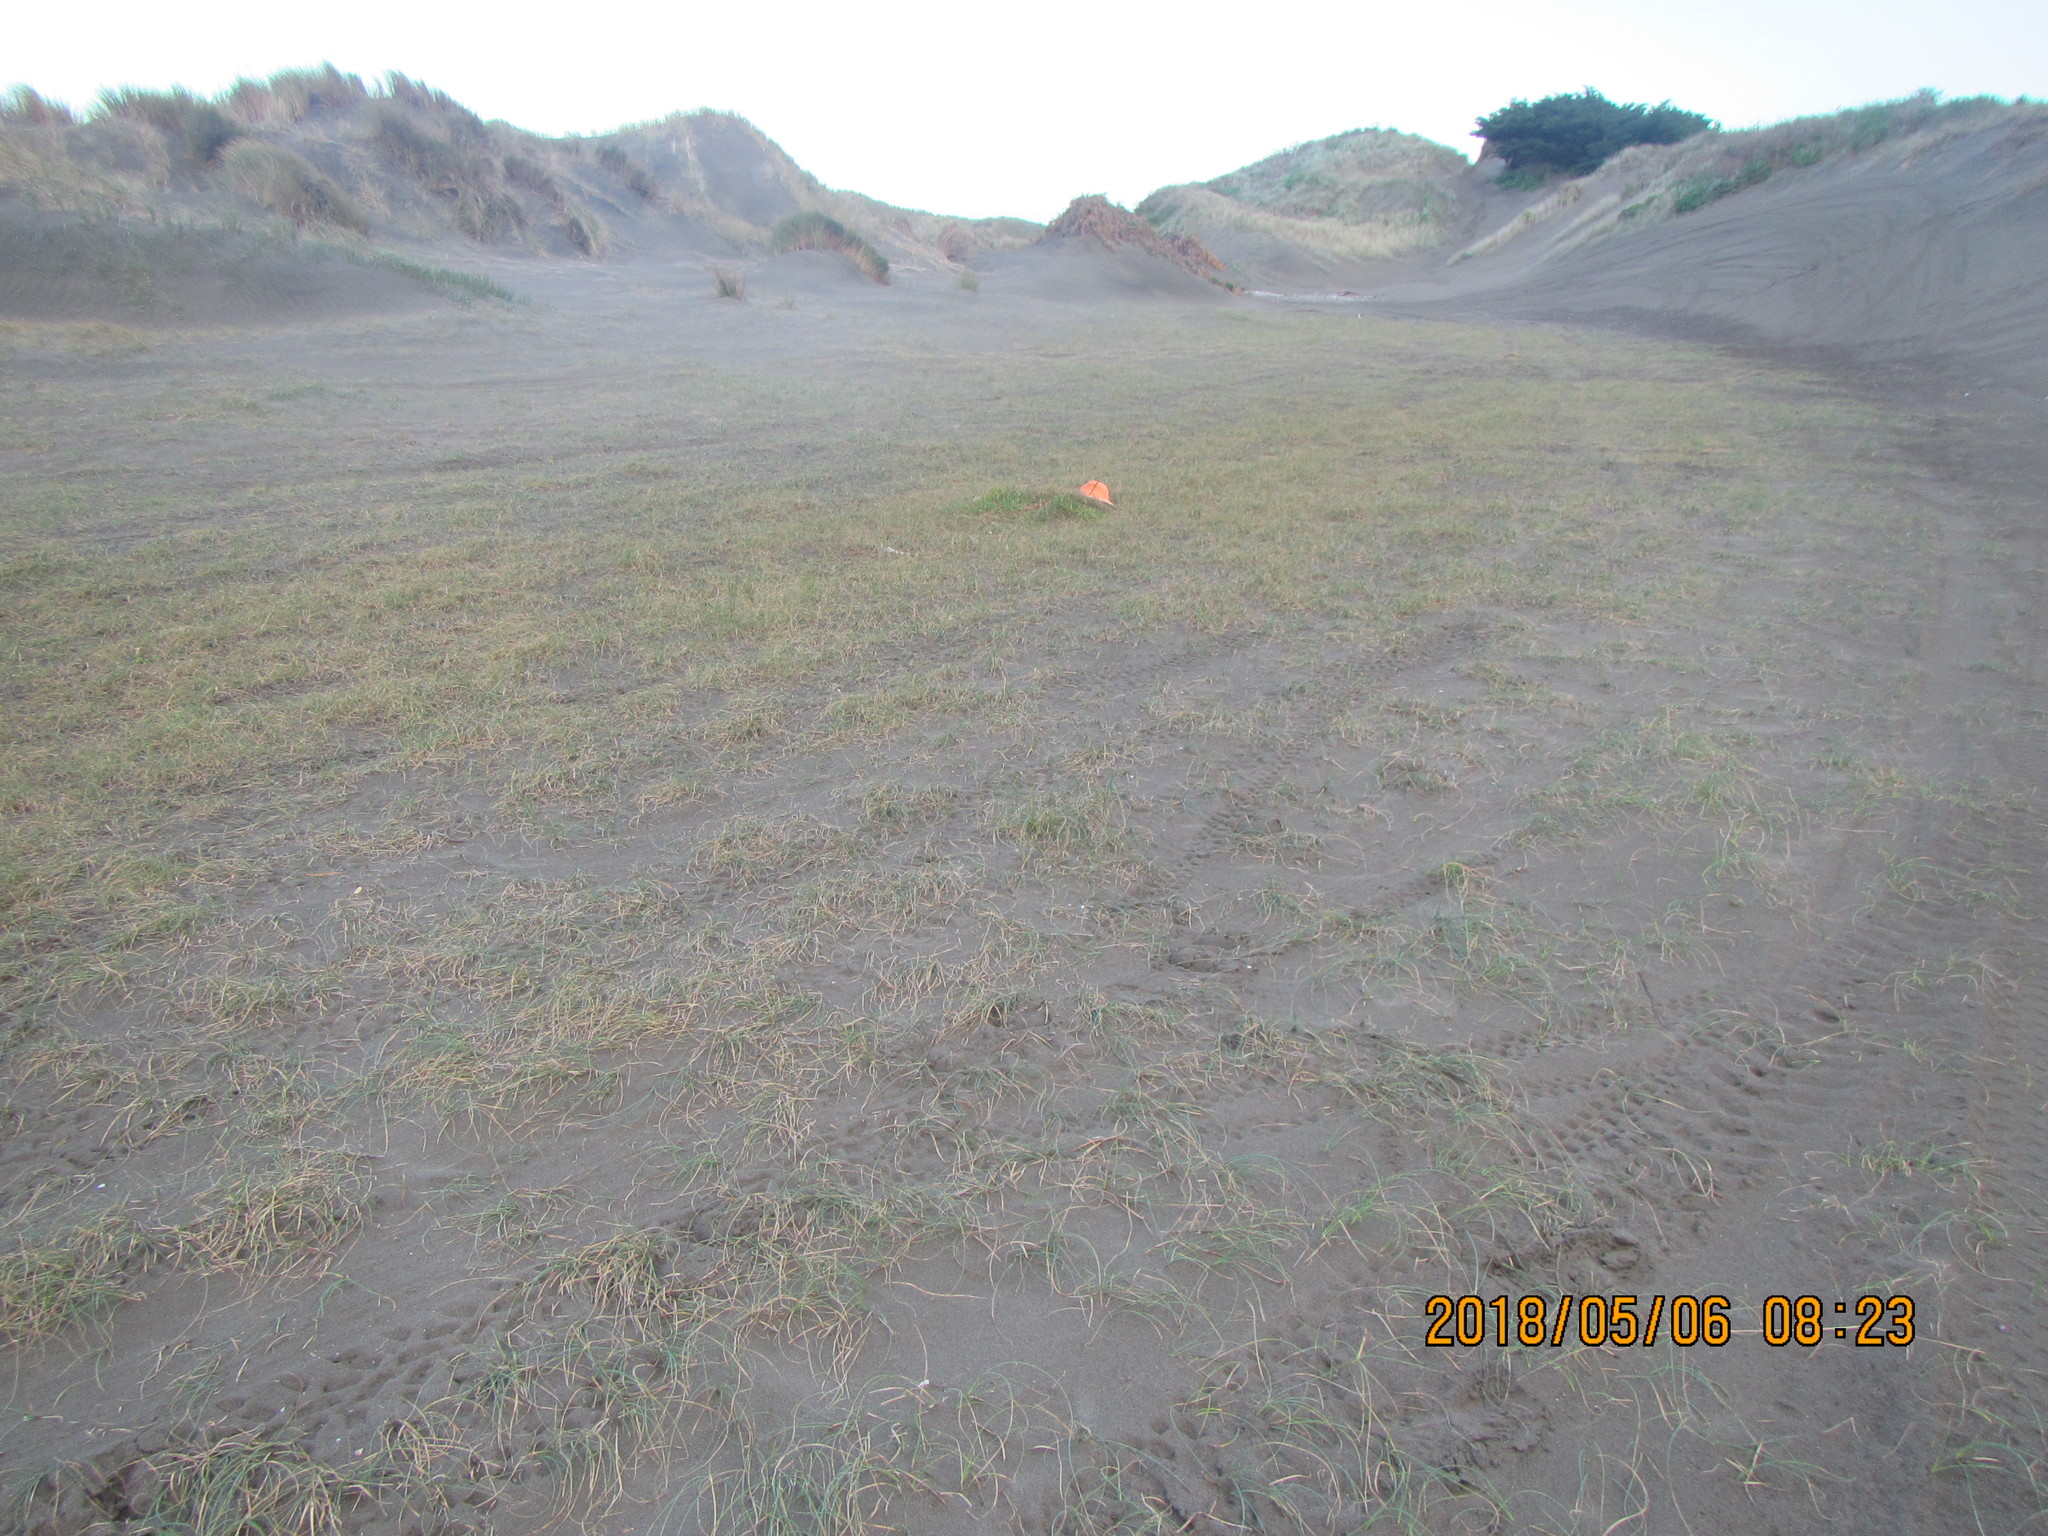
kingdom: Plantae
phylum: Tracheophyta
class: Liliopsida
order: Poales
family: Juncaceae
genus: Juncus
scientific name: Juncus caespiticius
